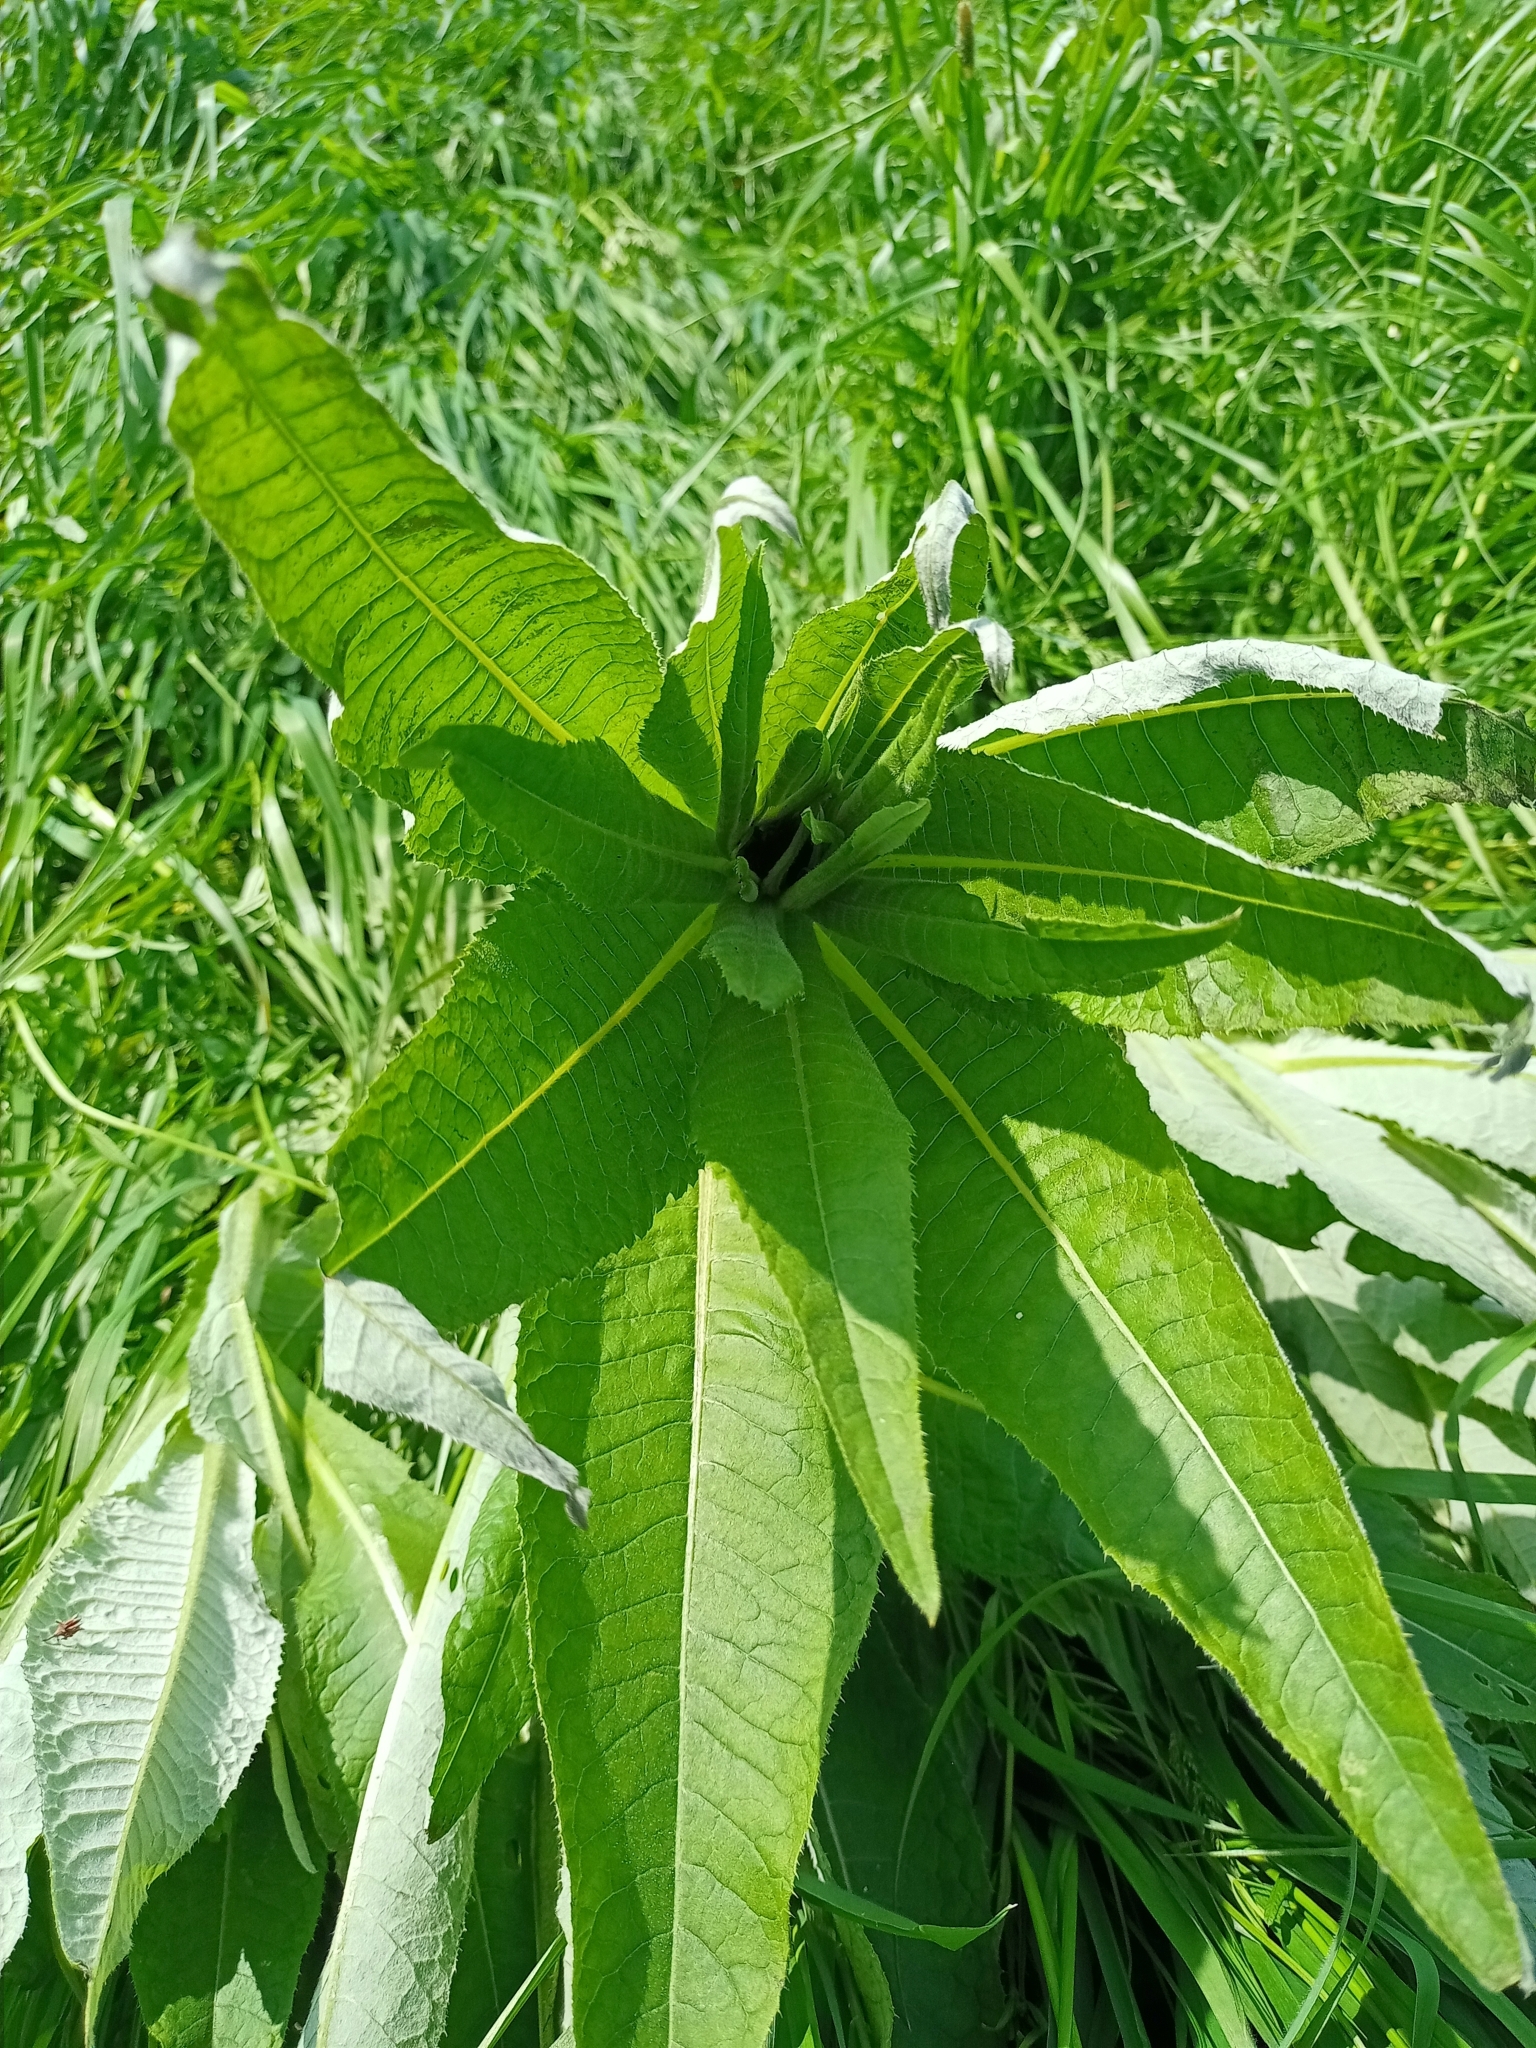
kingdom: Plantae
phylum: Tracheophyta
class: Magnoliopsida
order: Asterales
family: Asteraceae
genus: Cirsium
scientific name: Cirsium helenioides
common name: Melancholy thistle
